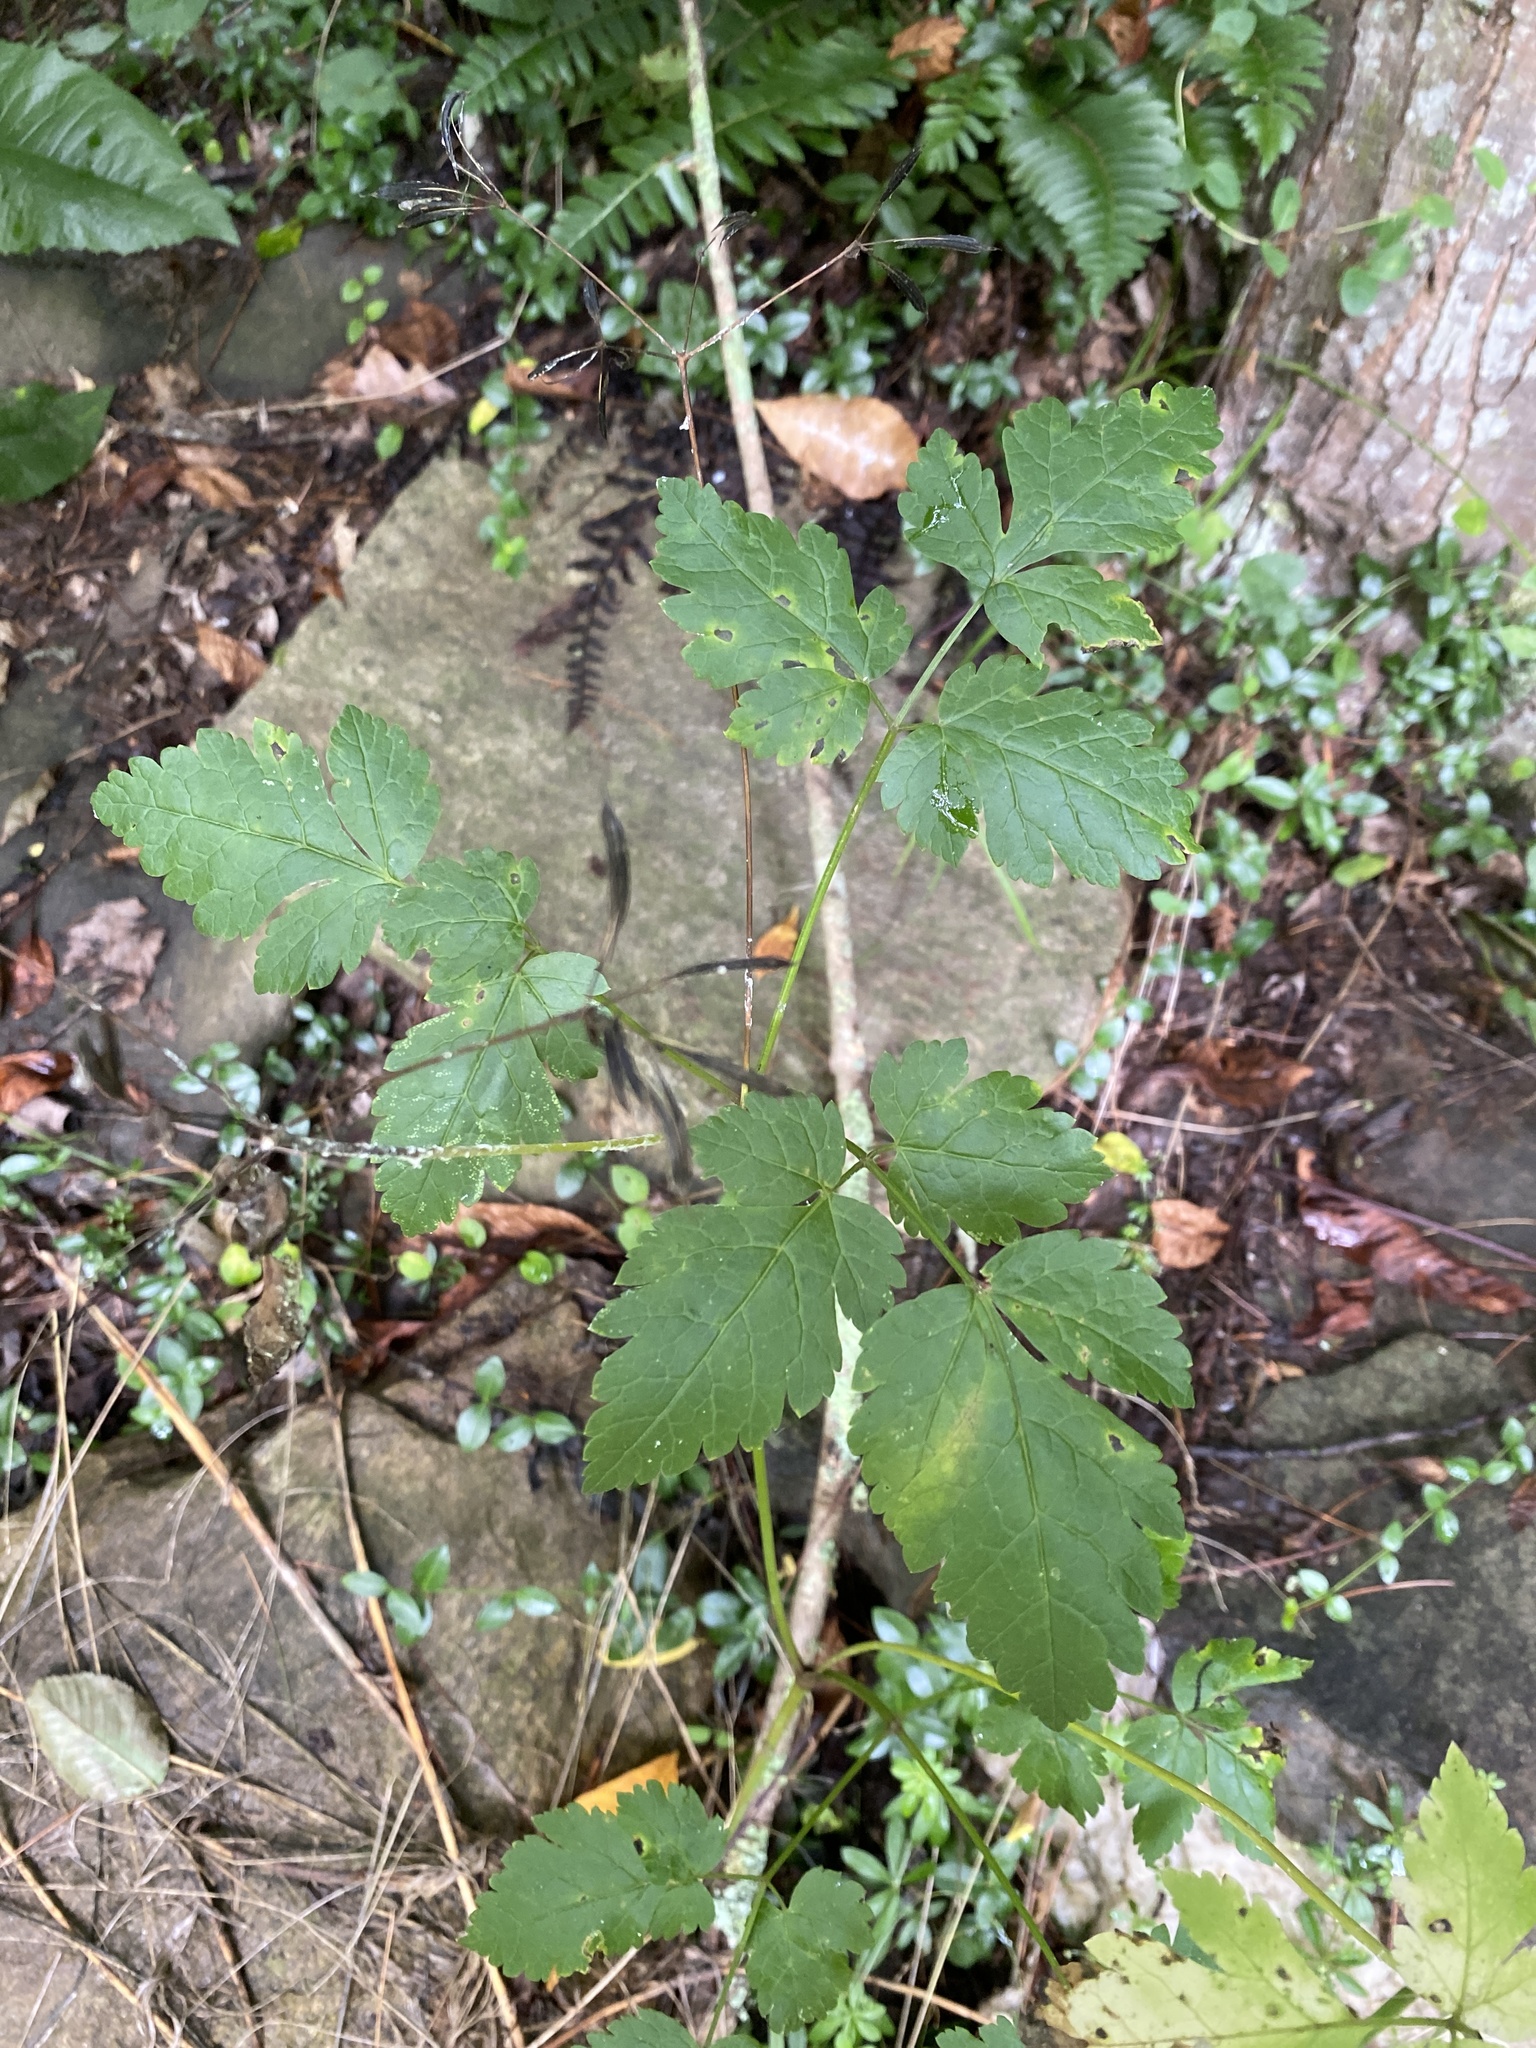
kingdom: Plantae
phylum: Tracheophyta
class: Magnoliopsida
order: Apiales
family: Apiaceae
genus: Osmorhiza
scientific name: Osmorhiza longistylis
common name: Smooth sweet cicely
